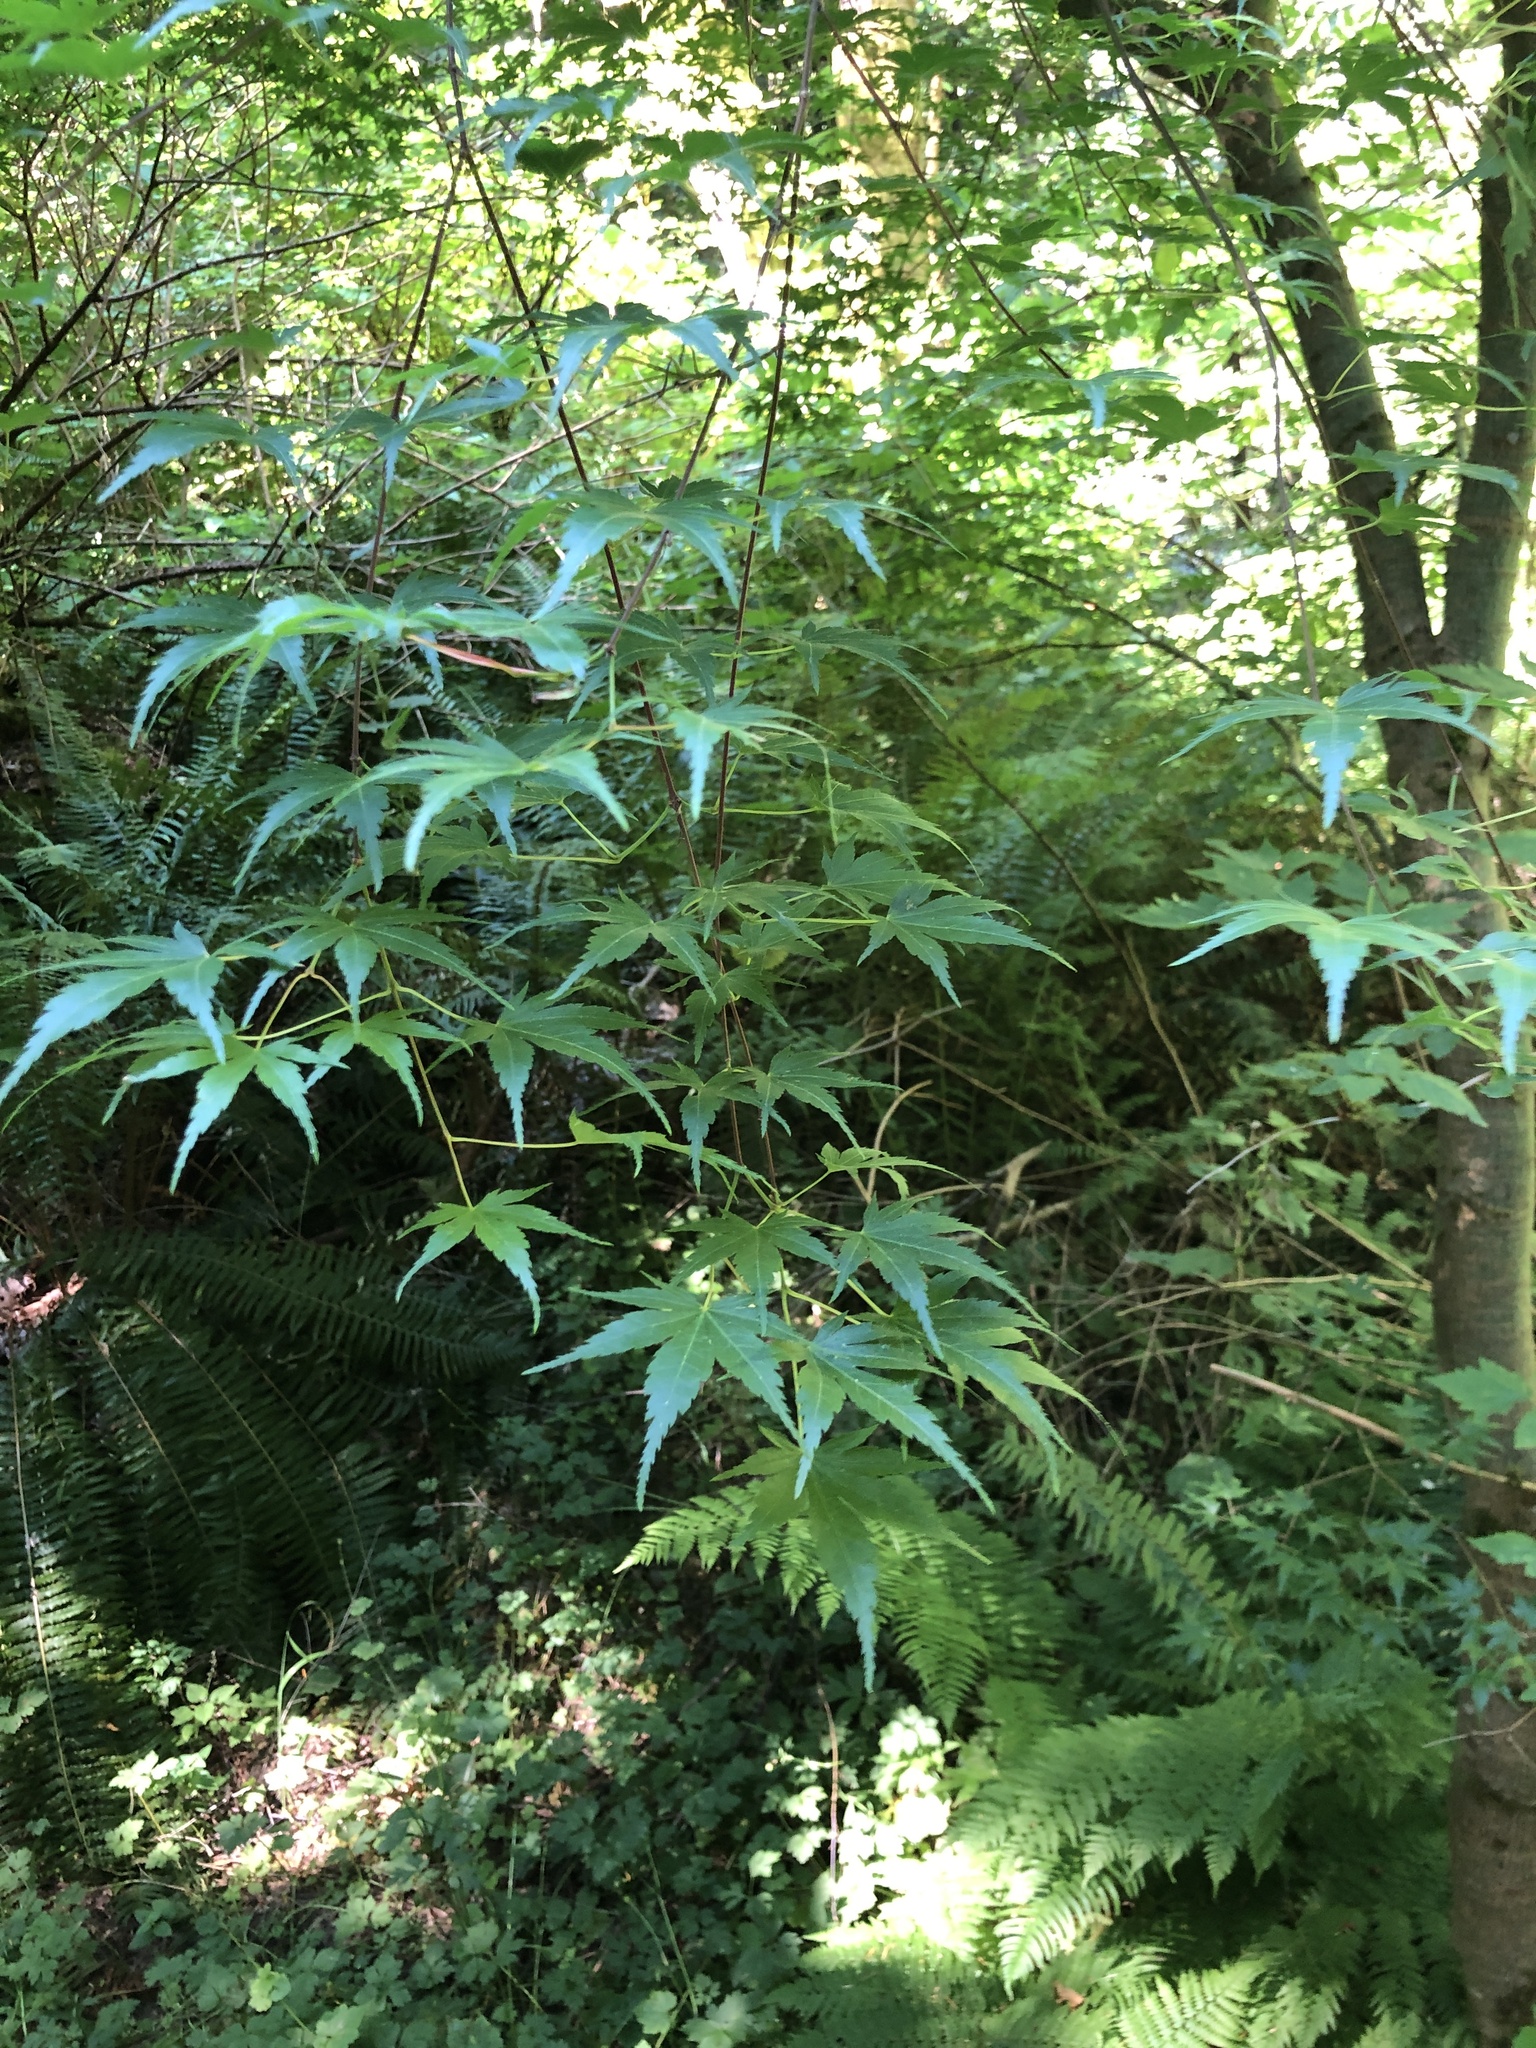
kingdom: Plantae
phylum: Tracheophyta
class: Magnoliopsida
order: Sapindales
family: Sapindaceae
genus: Acer
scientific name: Acer palmatum
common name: Japanese maple
